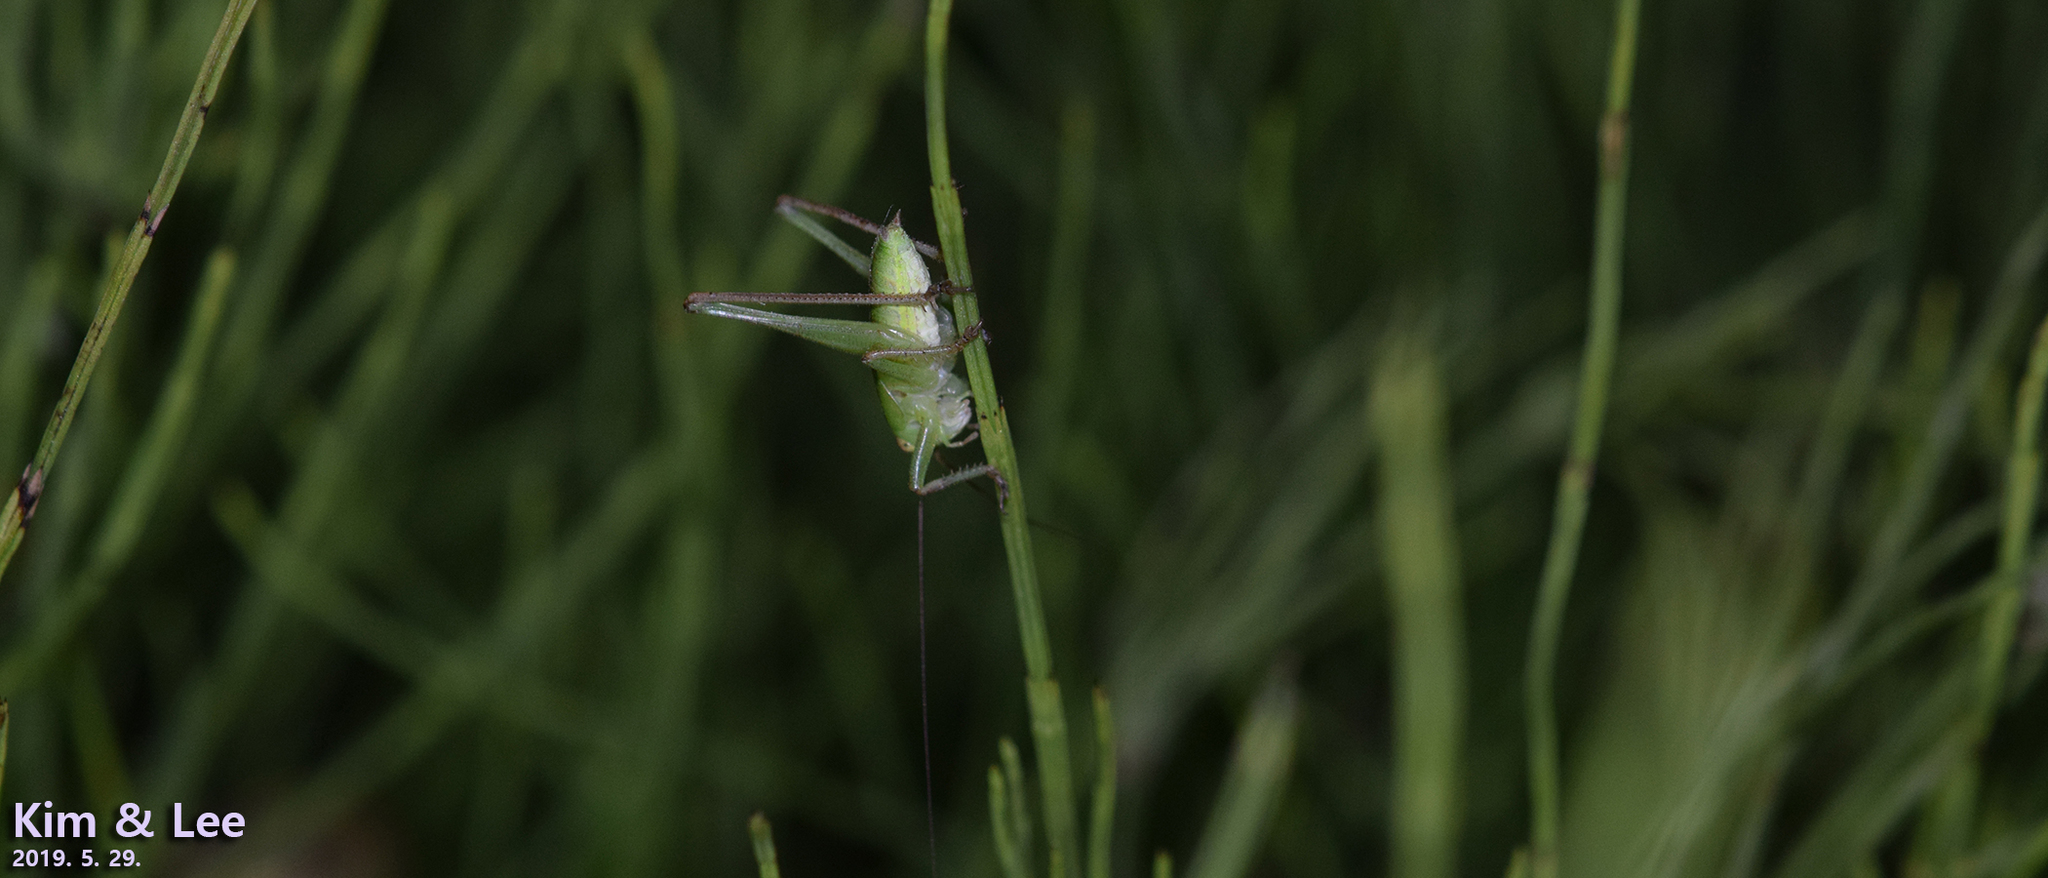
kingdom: Animalia
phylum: Arthropoda
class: Insecta
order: Orthoptera
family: Tettigoniidae
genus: Gampsocleis
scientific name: Gampsocleis ussuriensis
